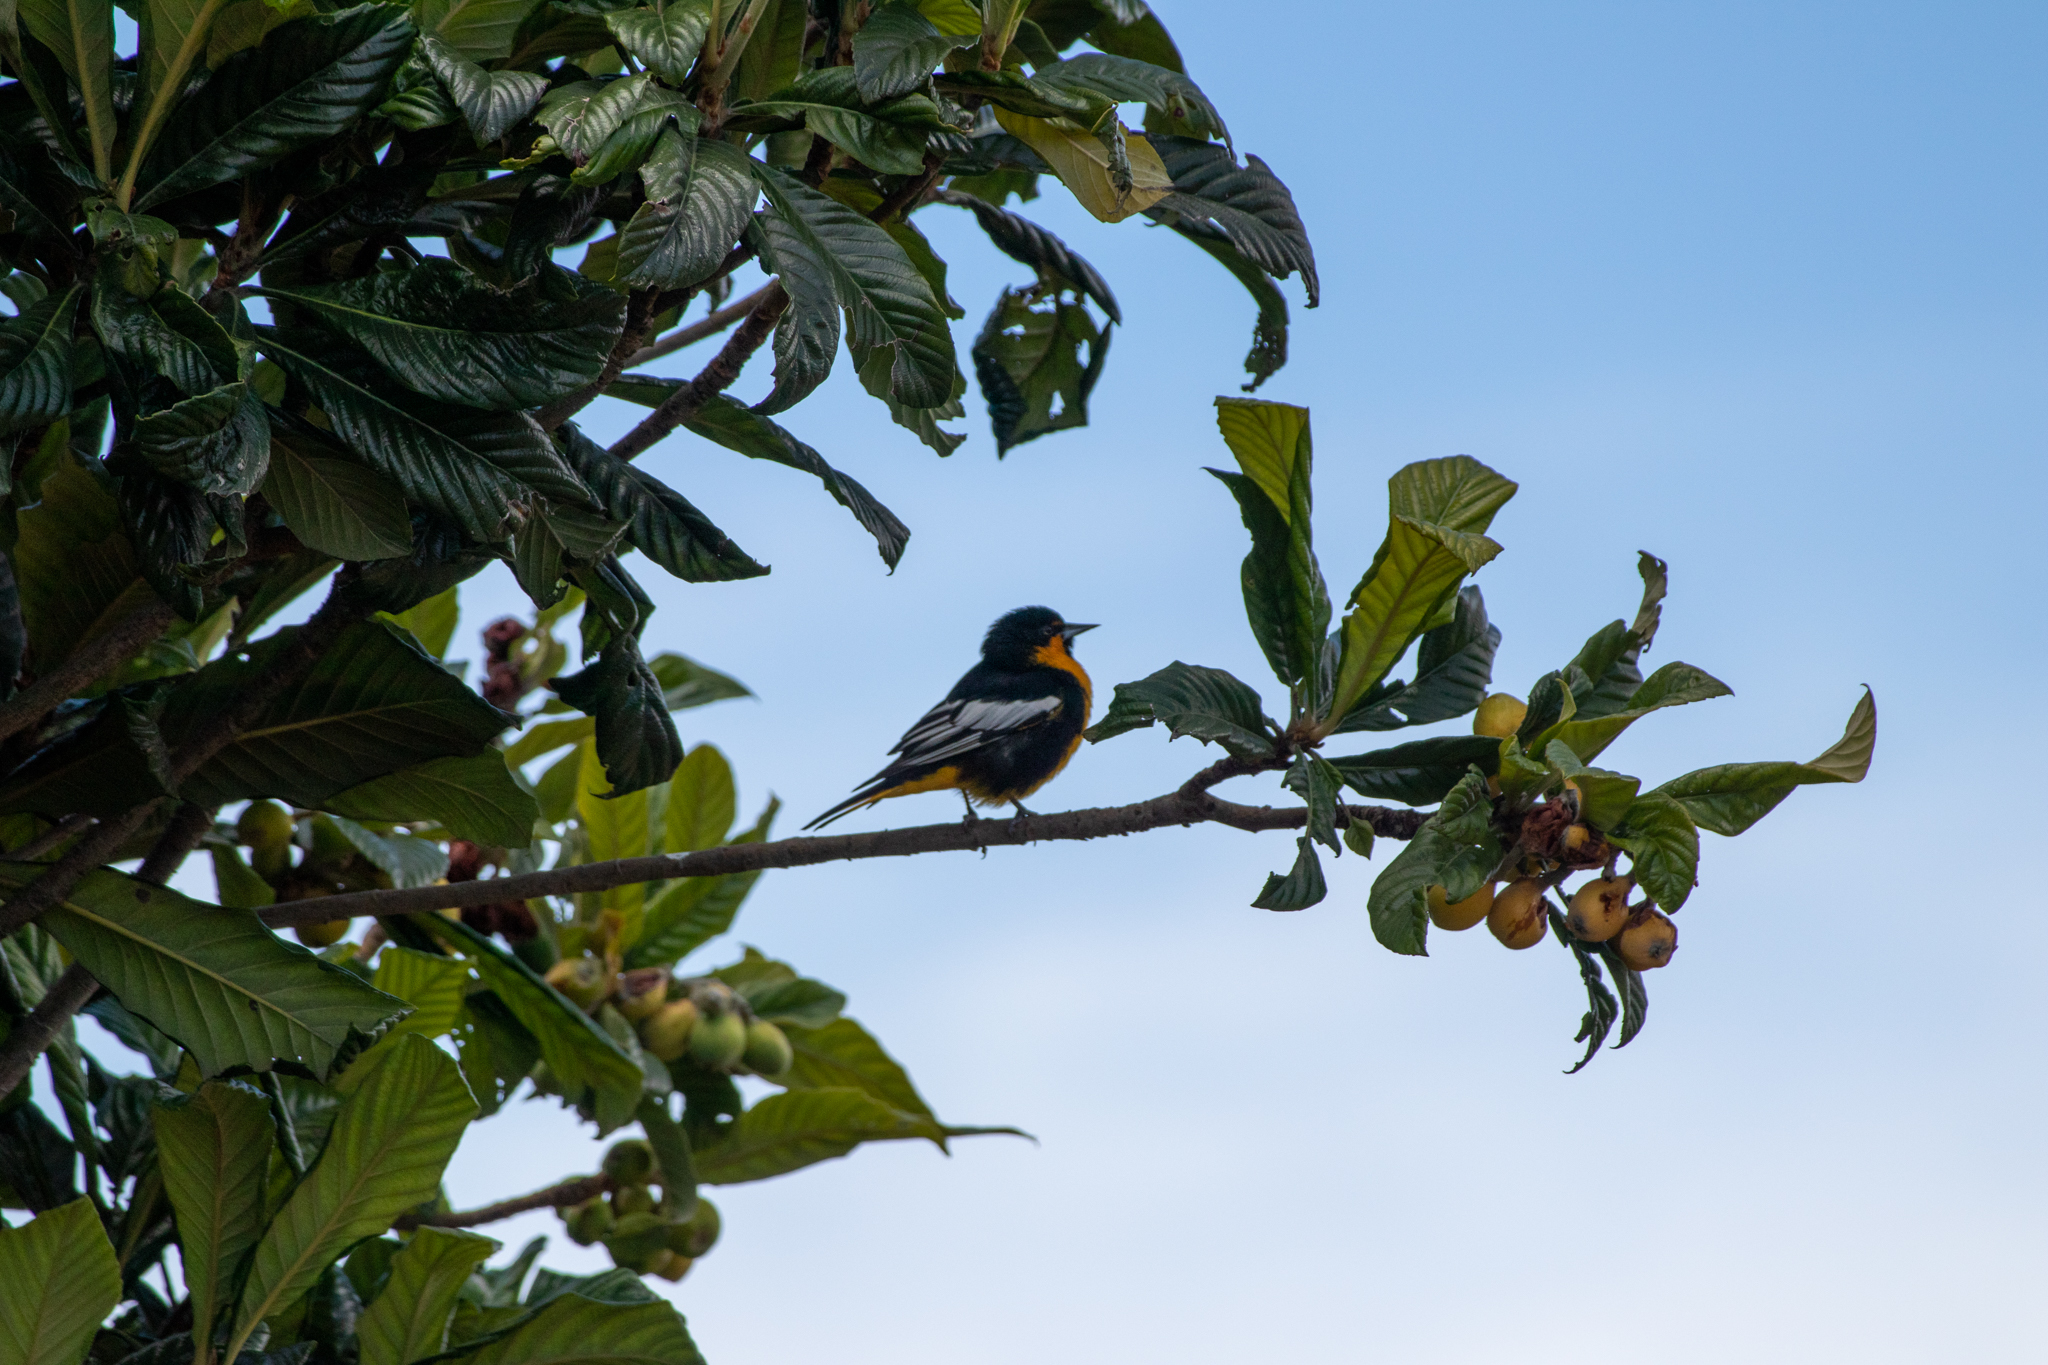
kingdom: Animalia
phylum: Chordata
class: Aves
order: Passeriformes
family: Icteridae
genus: Icterus
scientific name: Icterus abeillei
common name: Black-backed oriole
